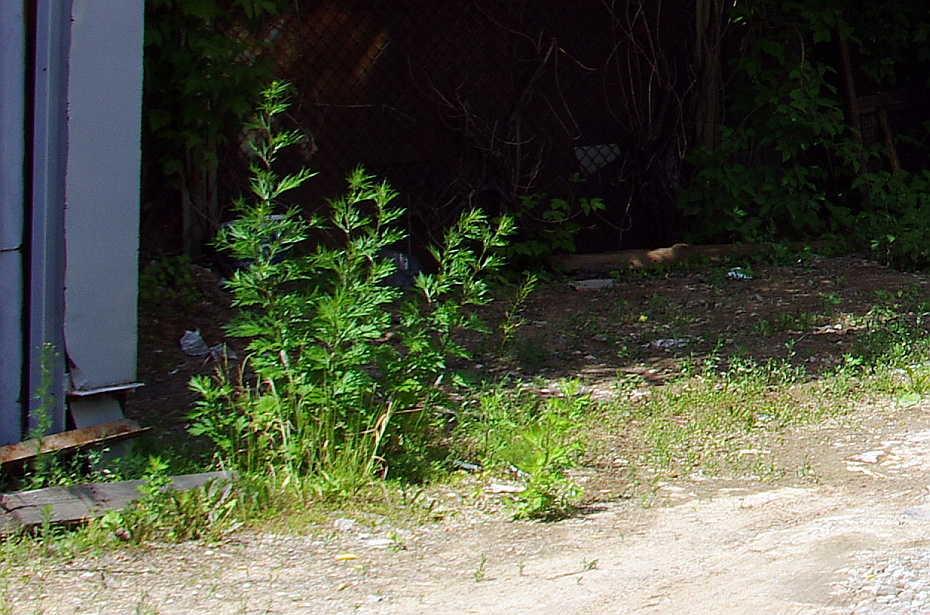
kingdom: Plantae
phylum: Tracheophyta
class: Magnoliopsida
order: Asterales
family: Asteraceae
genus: Artemisia
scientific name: Artemisia vulgaris
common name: Mugwort
